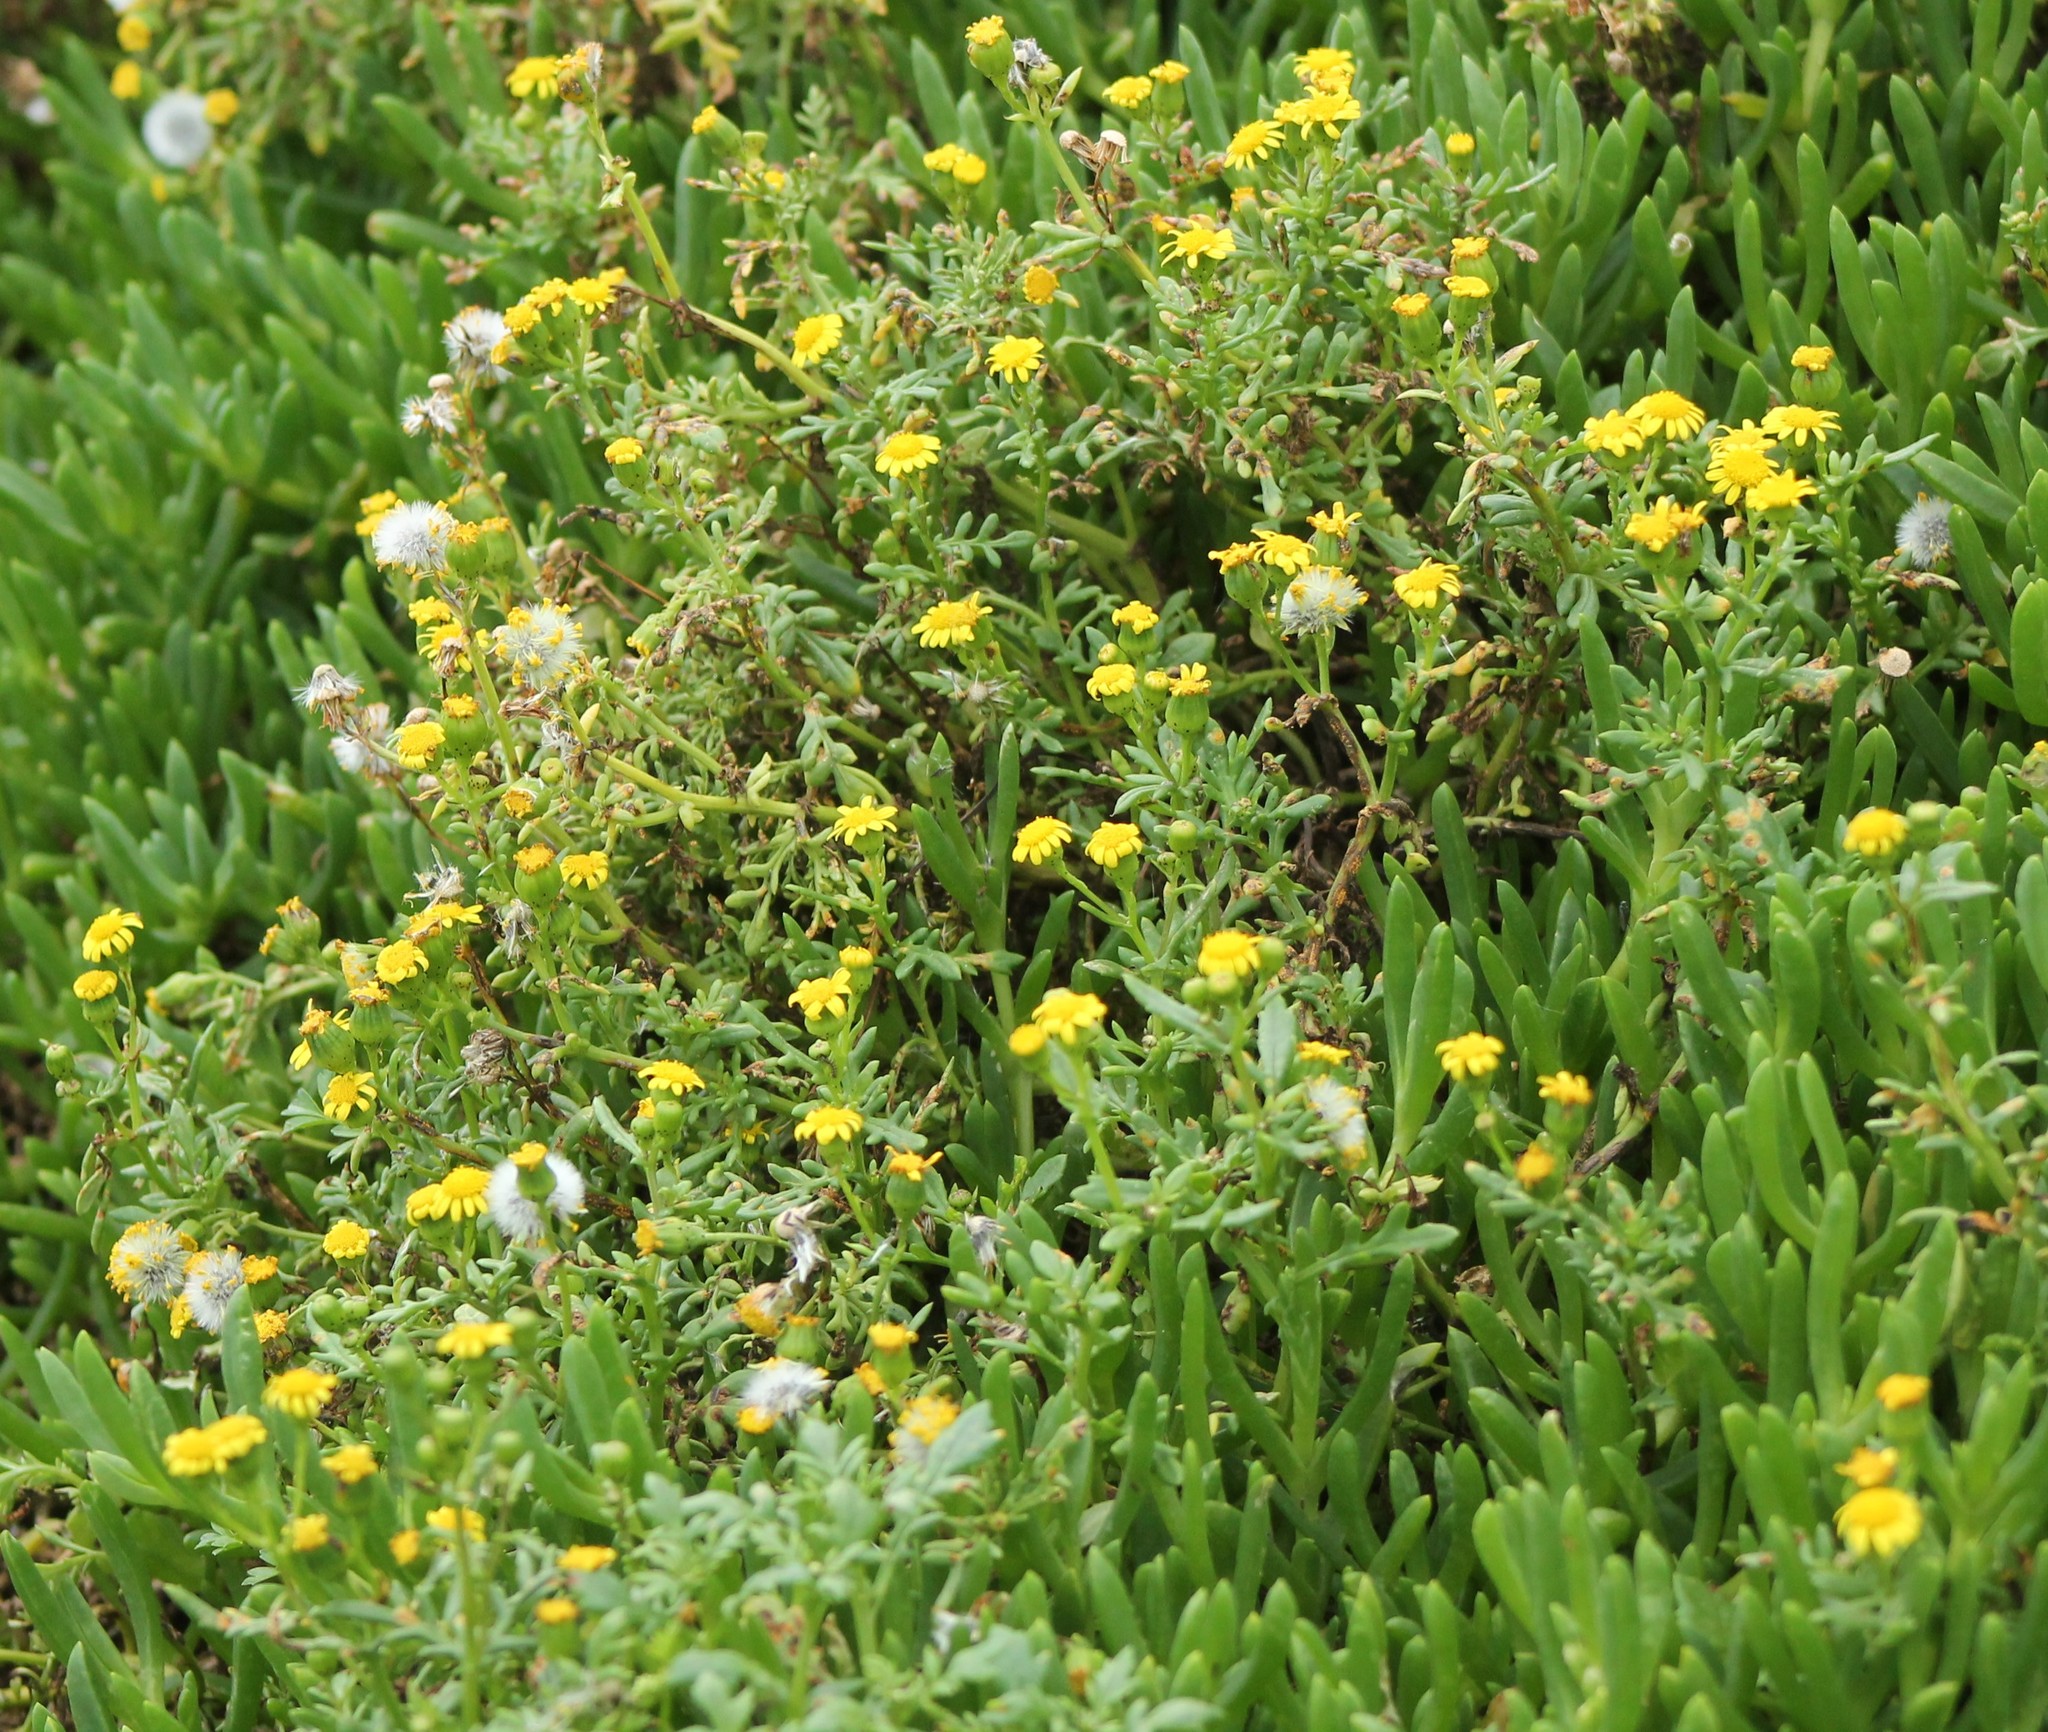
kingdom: Plantae
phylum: Tracheophyta
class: Magnoliopsida
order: Asterales
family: Asteraceae
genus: Senecio
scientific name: Senecio lautus
